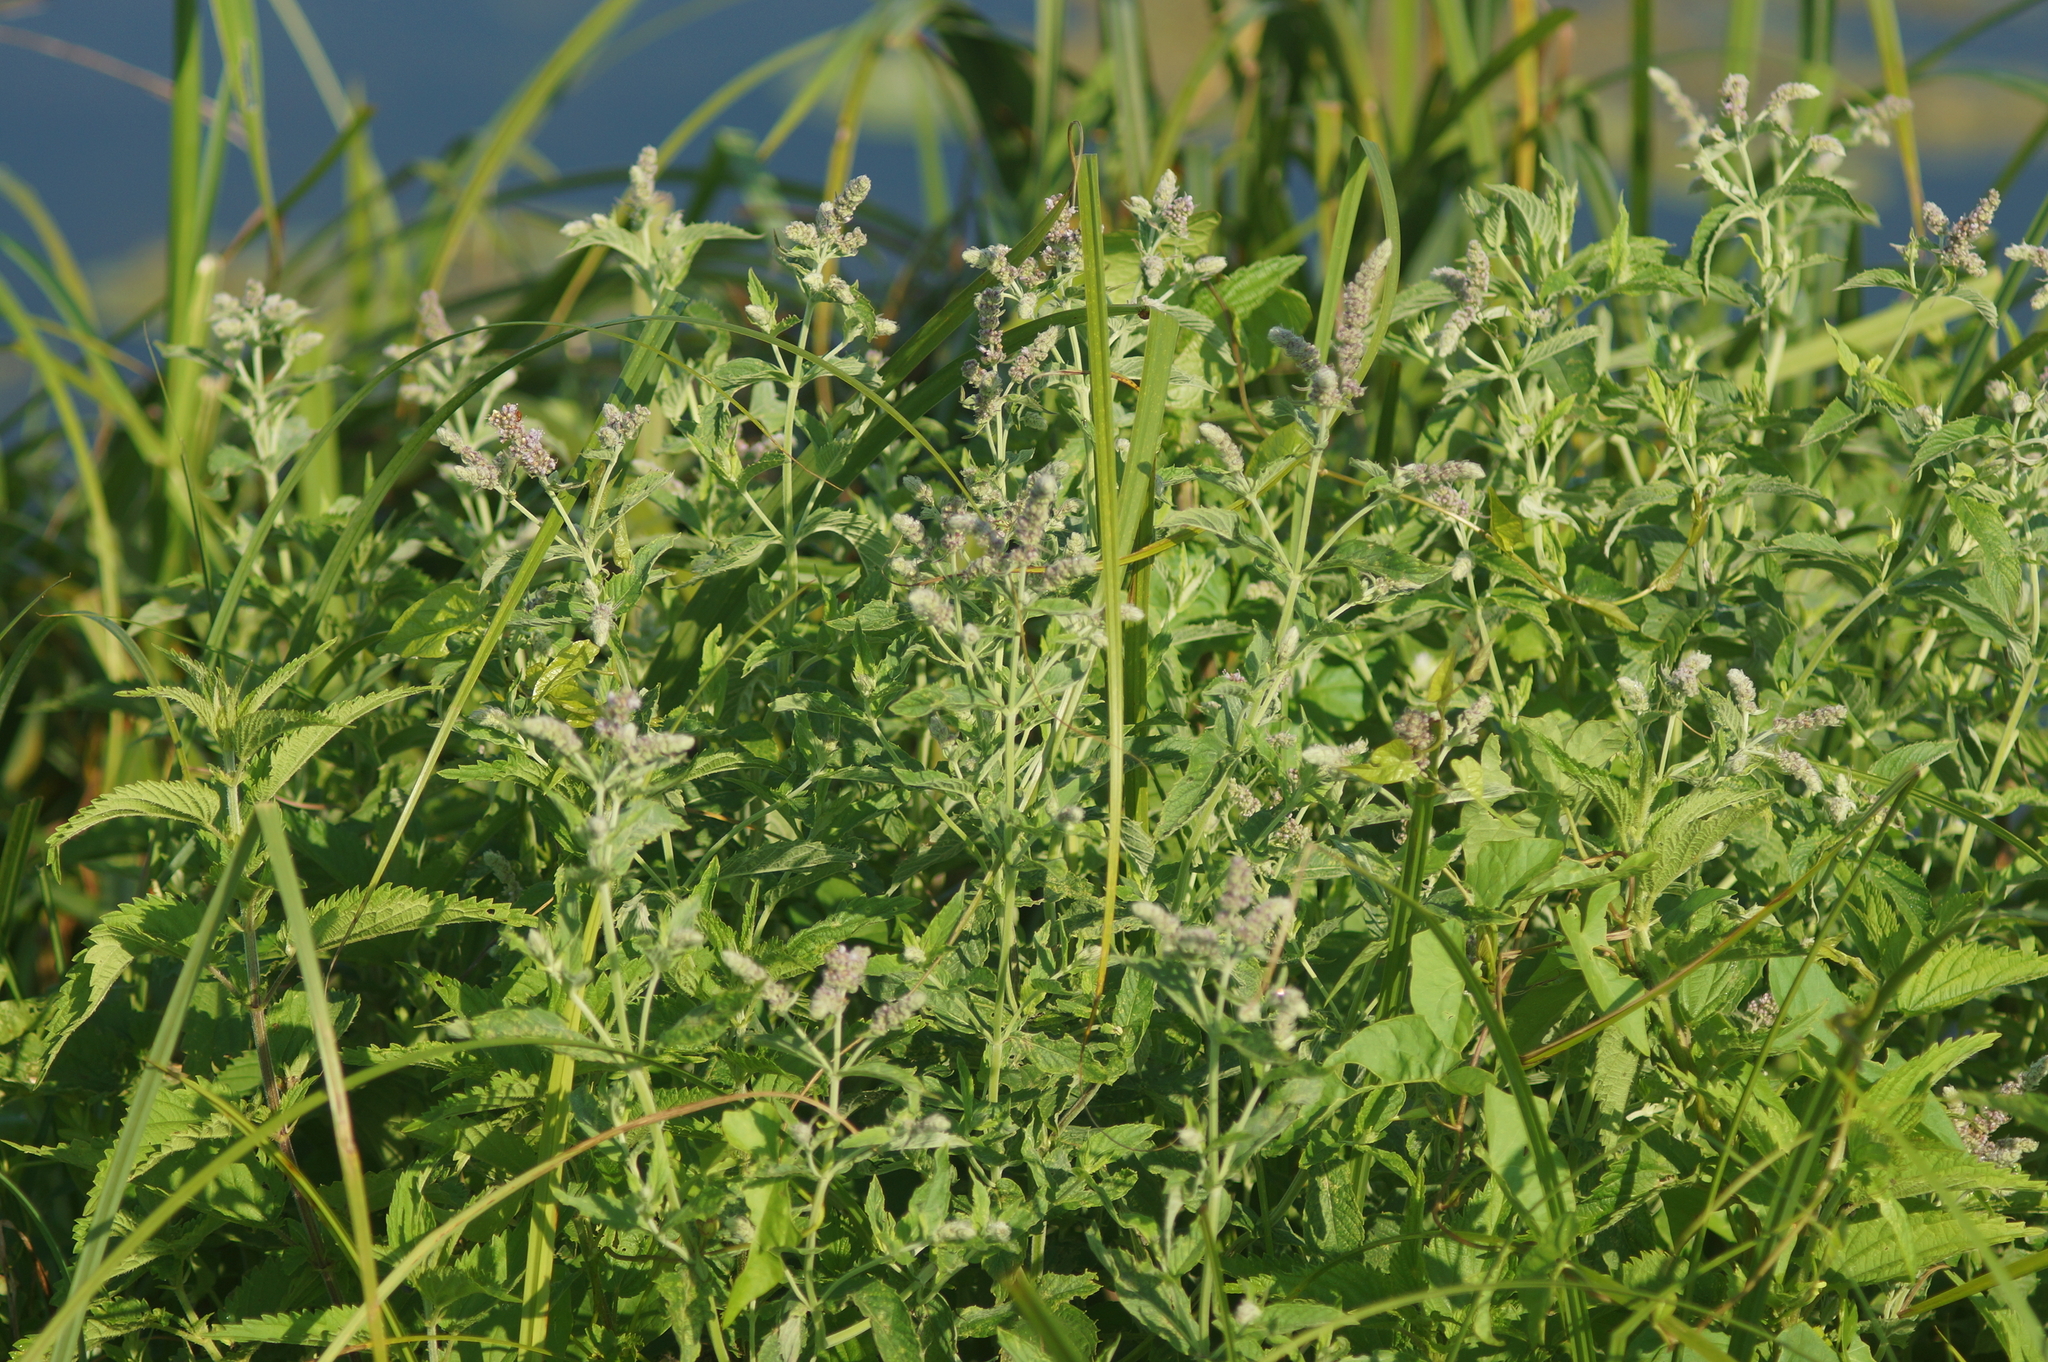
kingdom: Plantae
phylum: Tracheophyta
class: Magnoliopsida
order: Lamiales
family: Lamiaceae
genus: Mentha
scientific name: Mentha longifolia
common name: Horse mint
